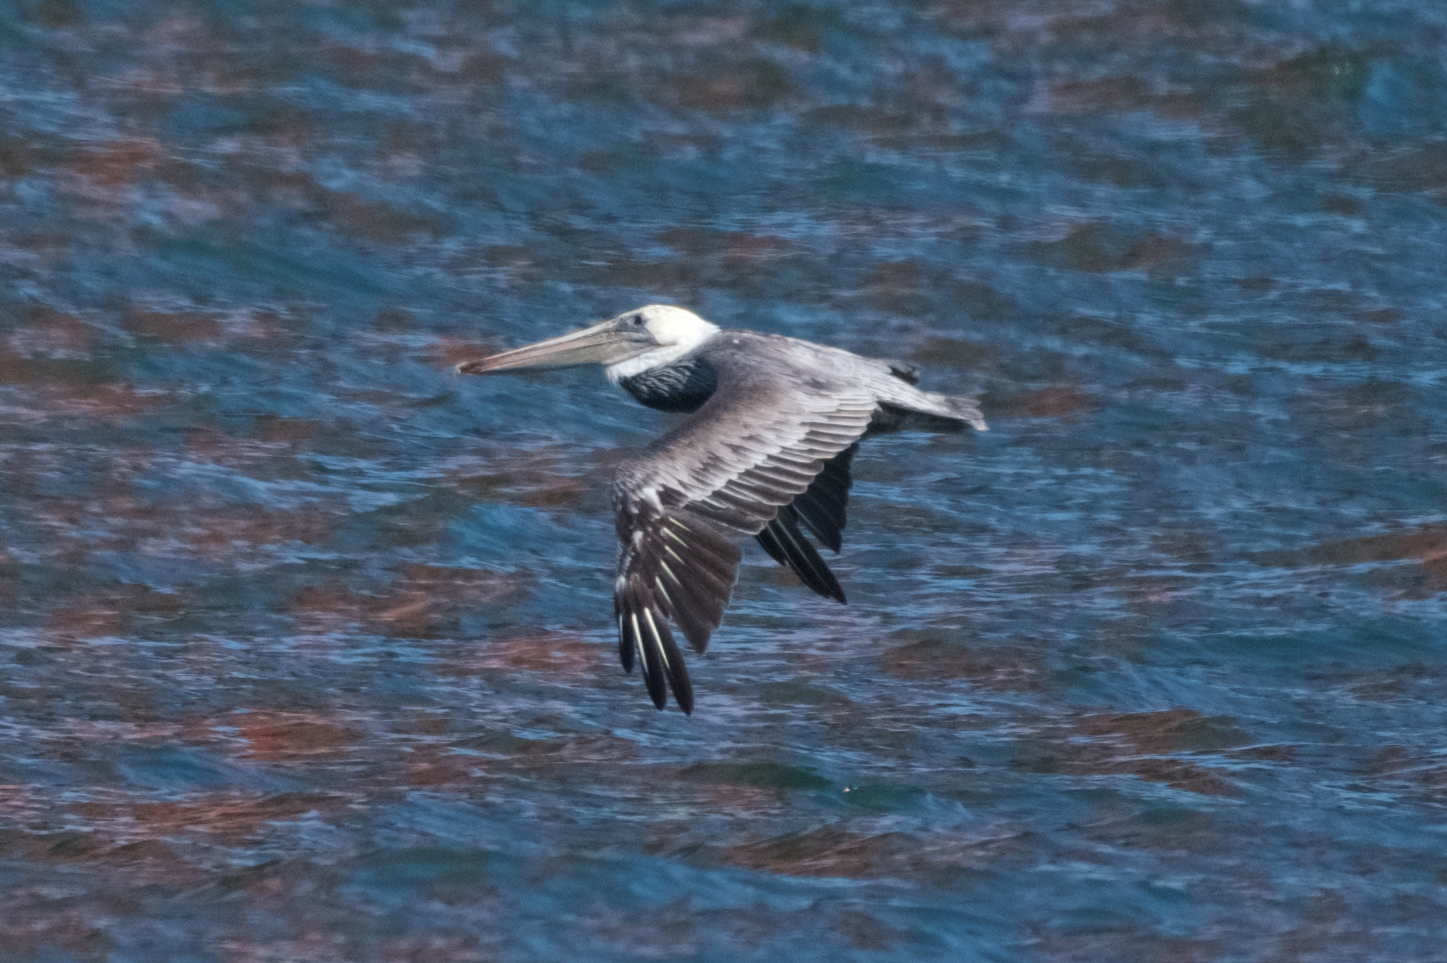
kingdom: Animalia
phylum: Chordata
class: Aves
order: Pelecaniformes
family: Pelecanidae
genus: Pelecanus
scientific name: Pelecanus occidentalis
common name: Brown pelican
